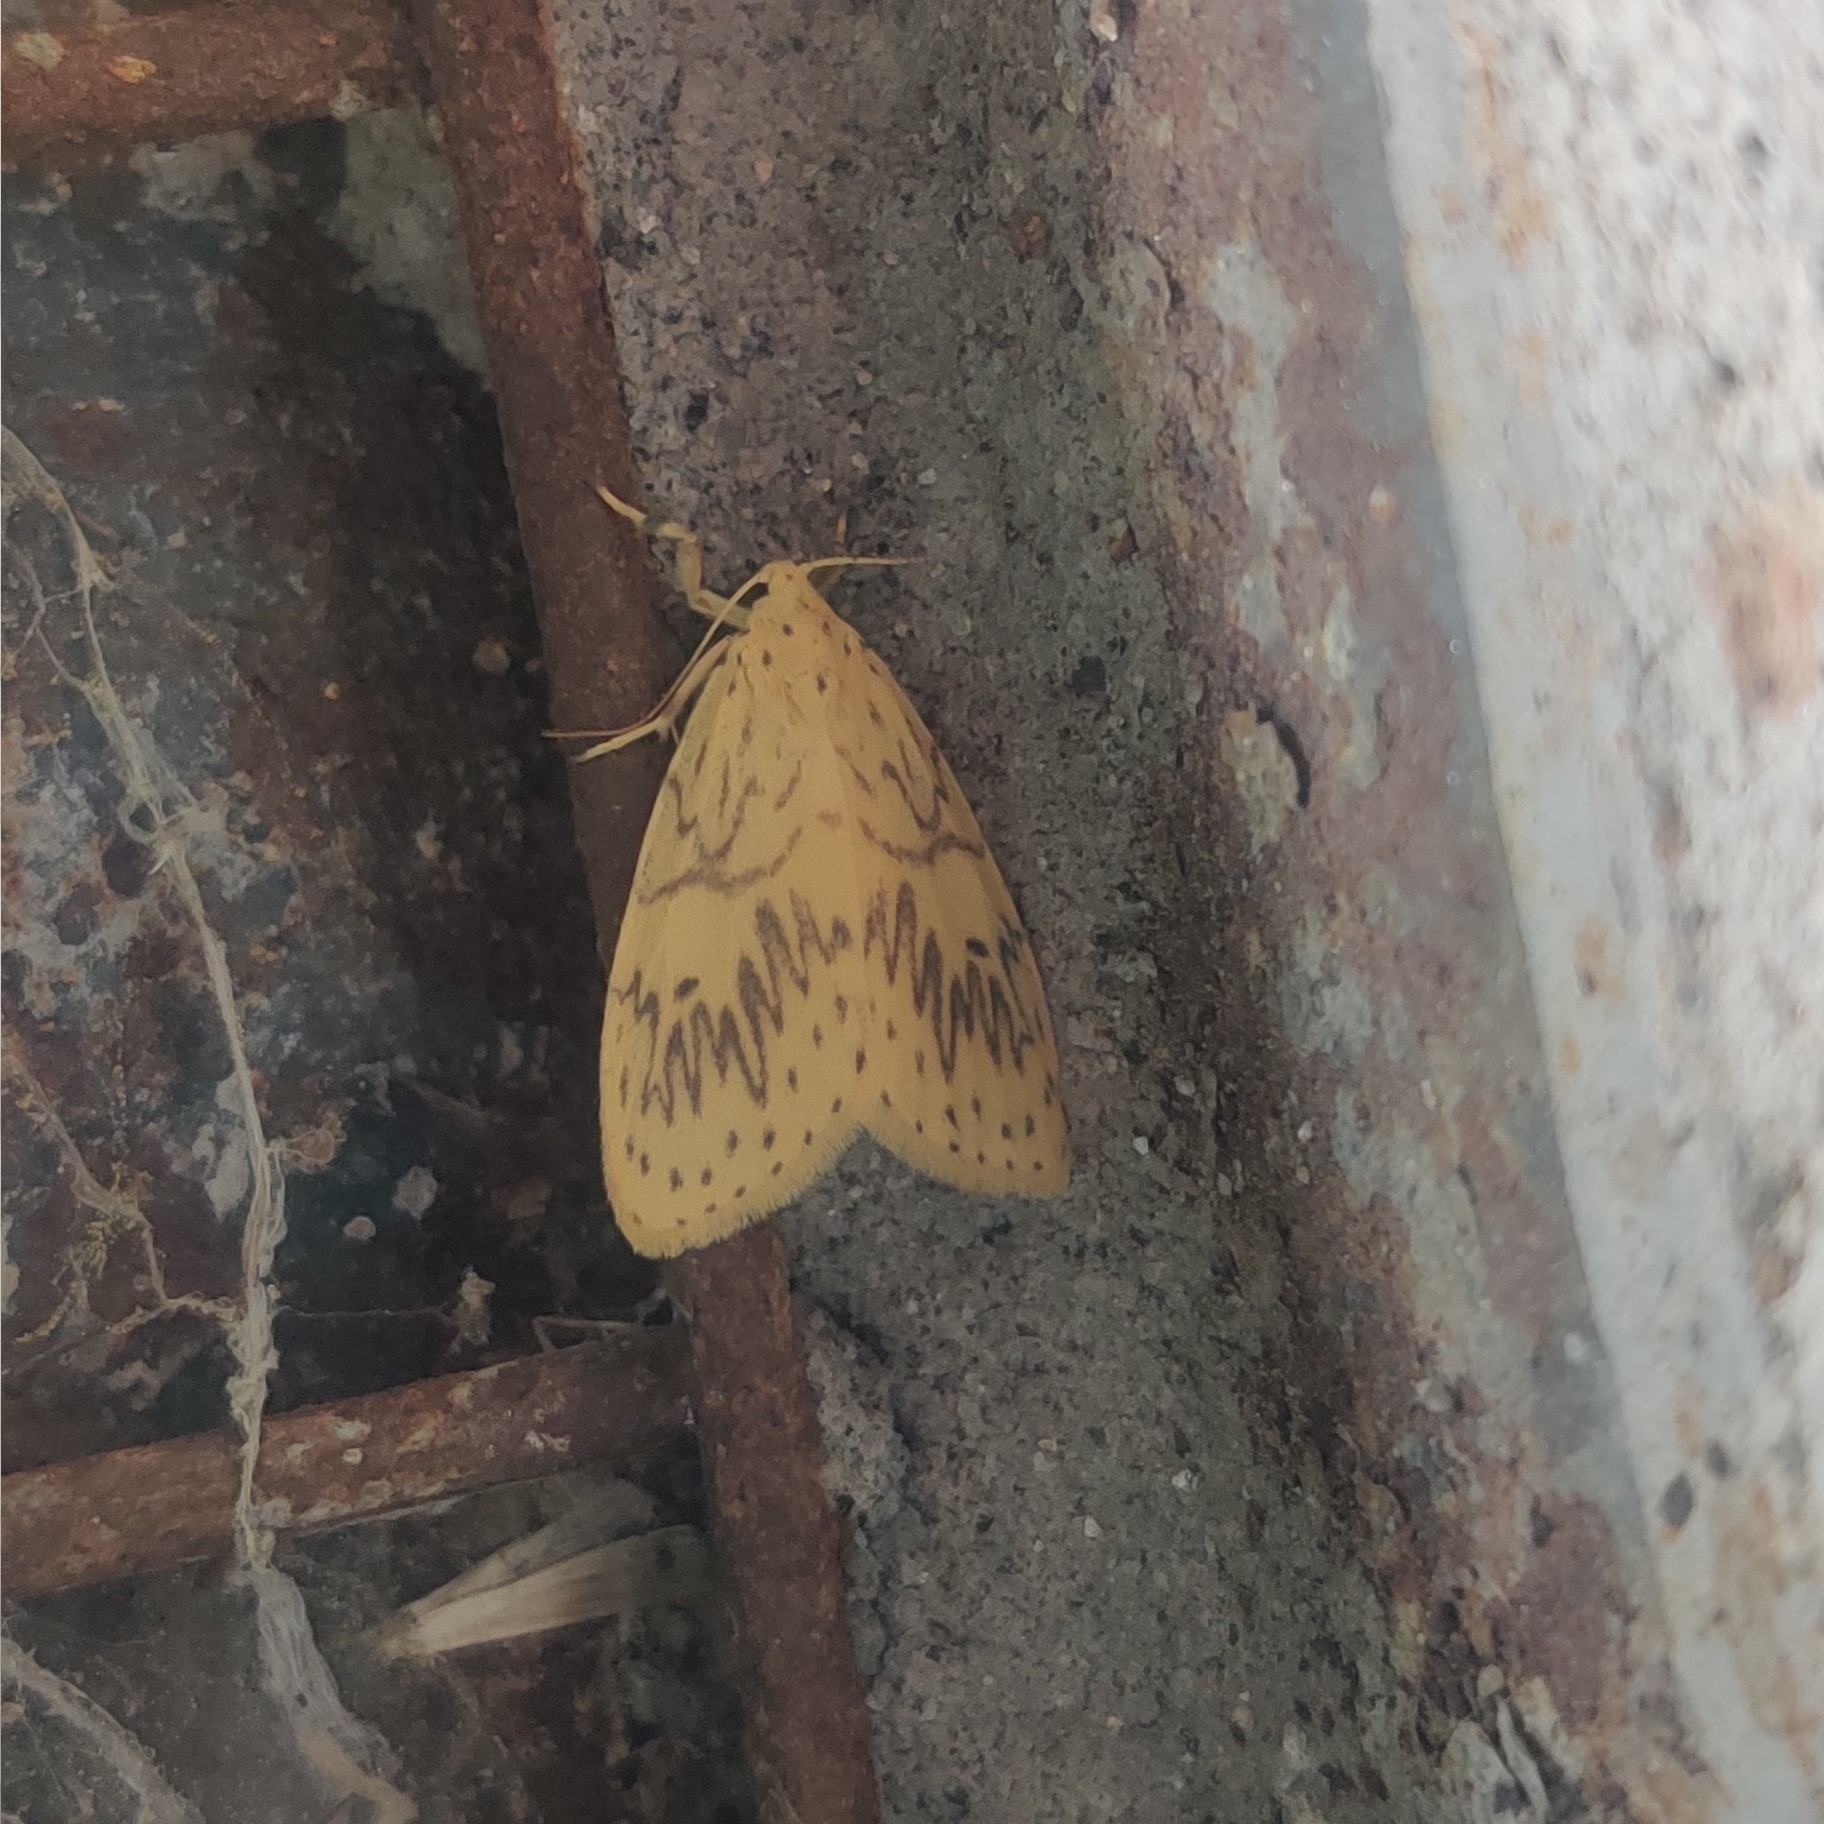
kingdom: Animalia
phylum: Arthropoda
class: Insecta
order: Lepidoptera
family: Erebidae
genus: Pseudobarsine
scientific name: Pseudobarsine bombdilensis
